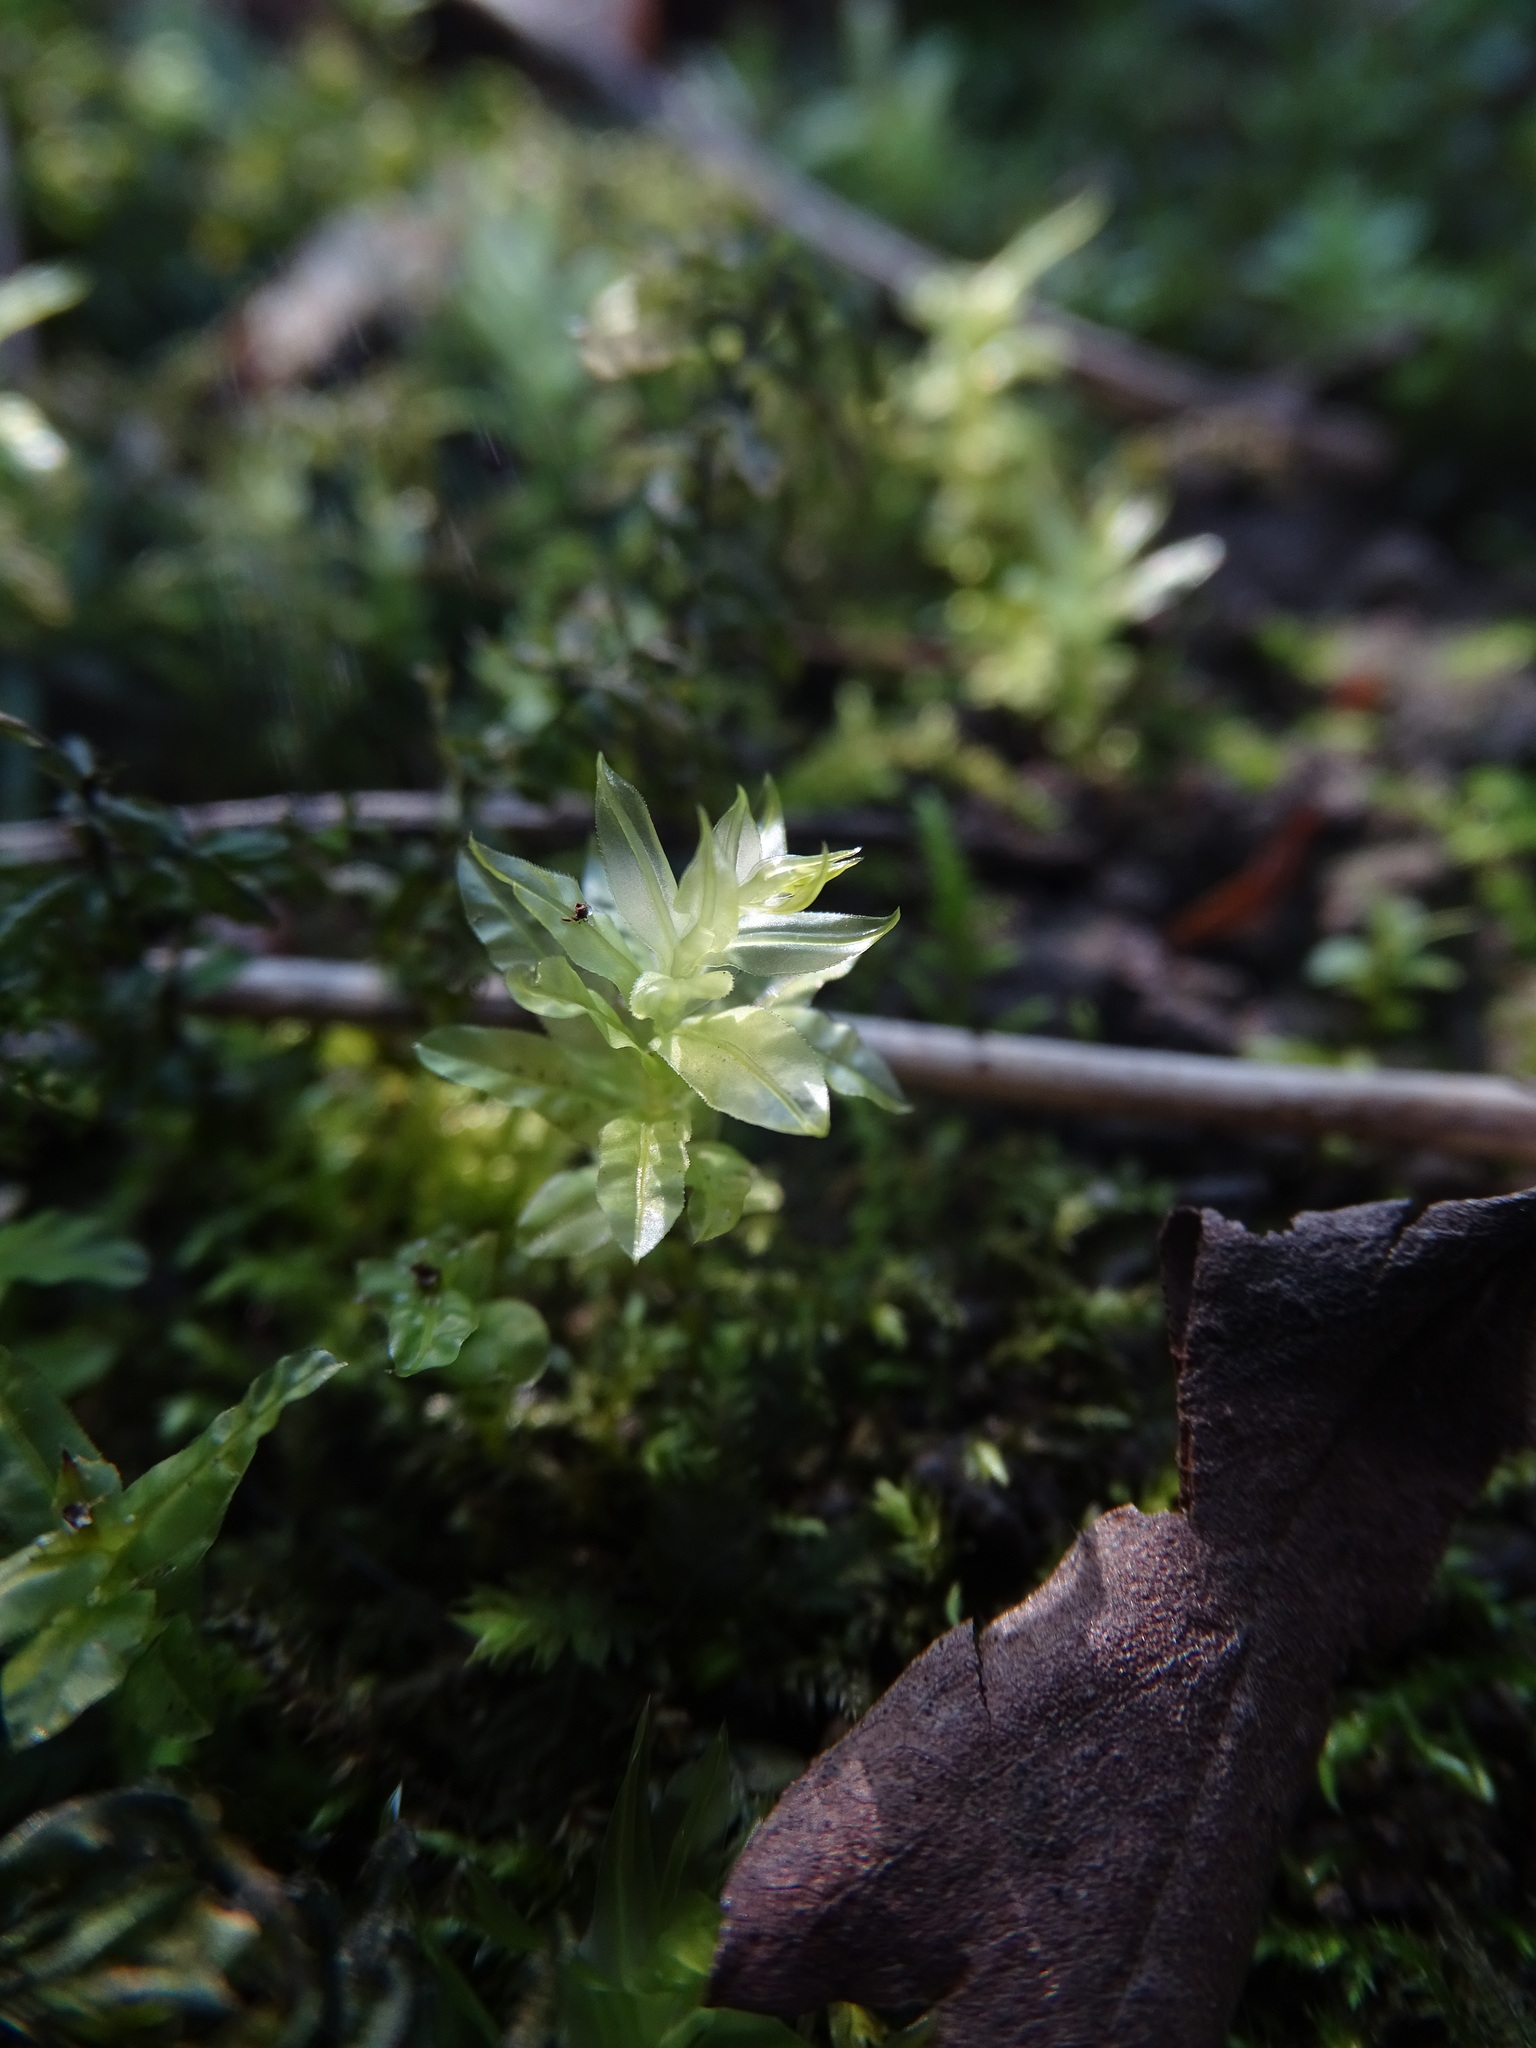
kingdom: Plantae
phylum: Bryophyta
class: Bryopsida
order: Bryales
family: Mniaceae
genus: Plagiomnium
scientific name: Plagiomnium undulatum
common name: Hart's-tongue thyme-moss
